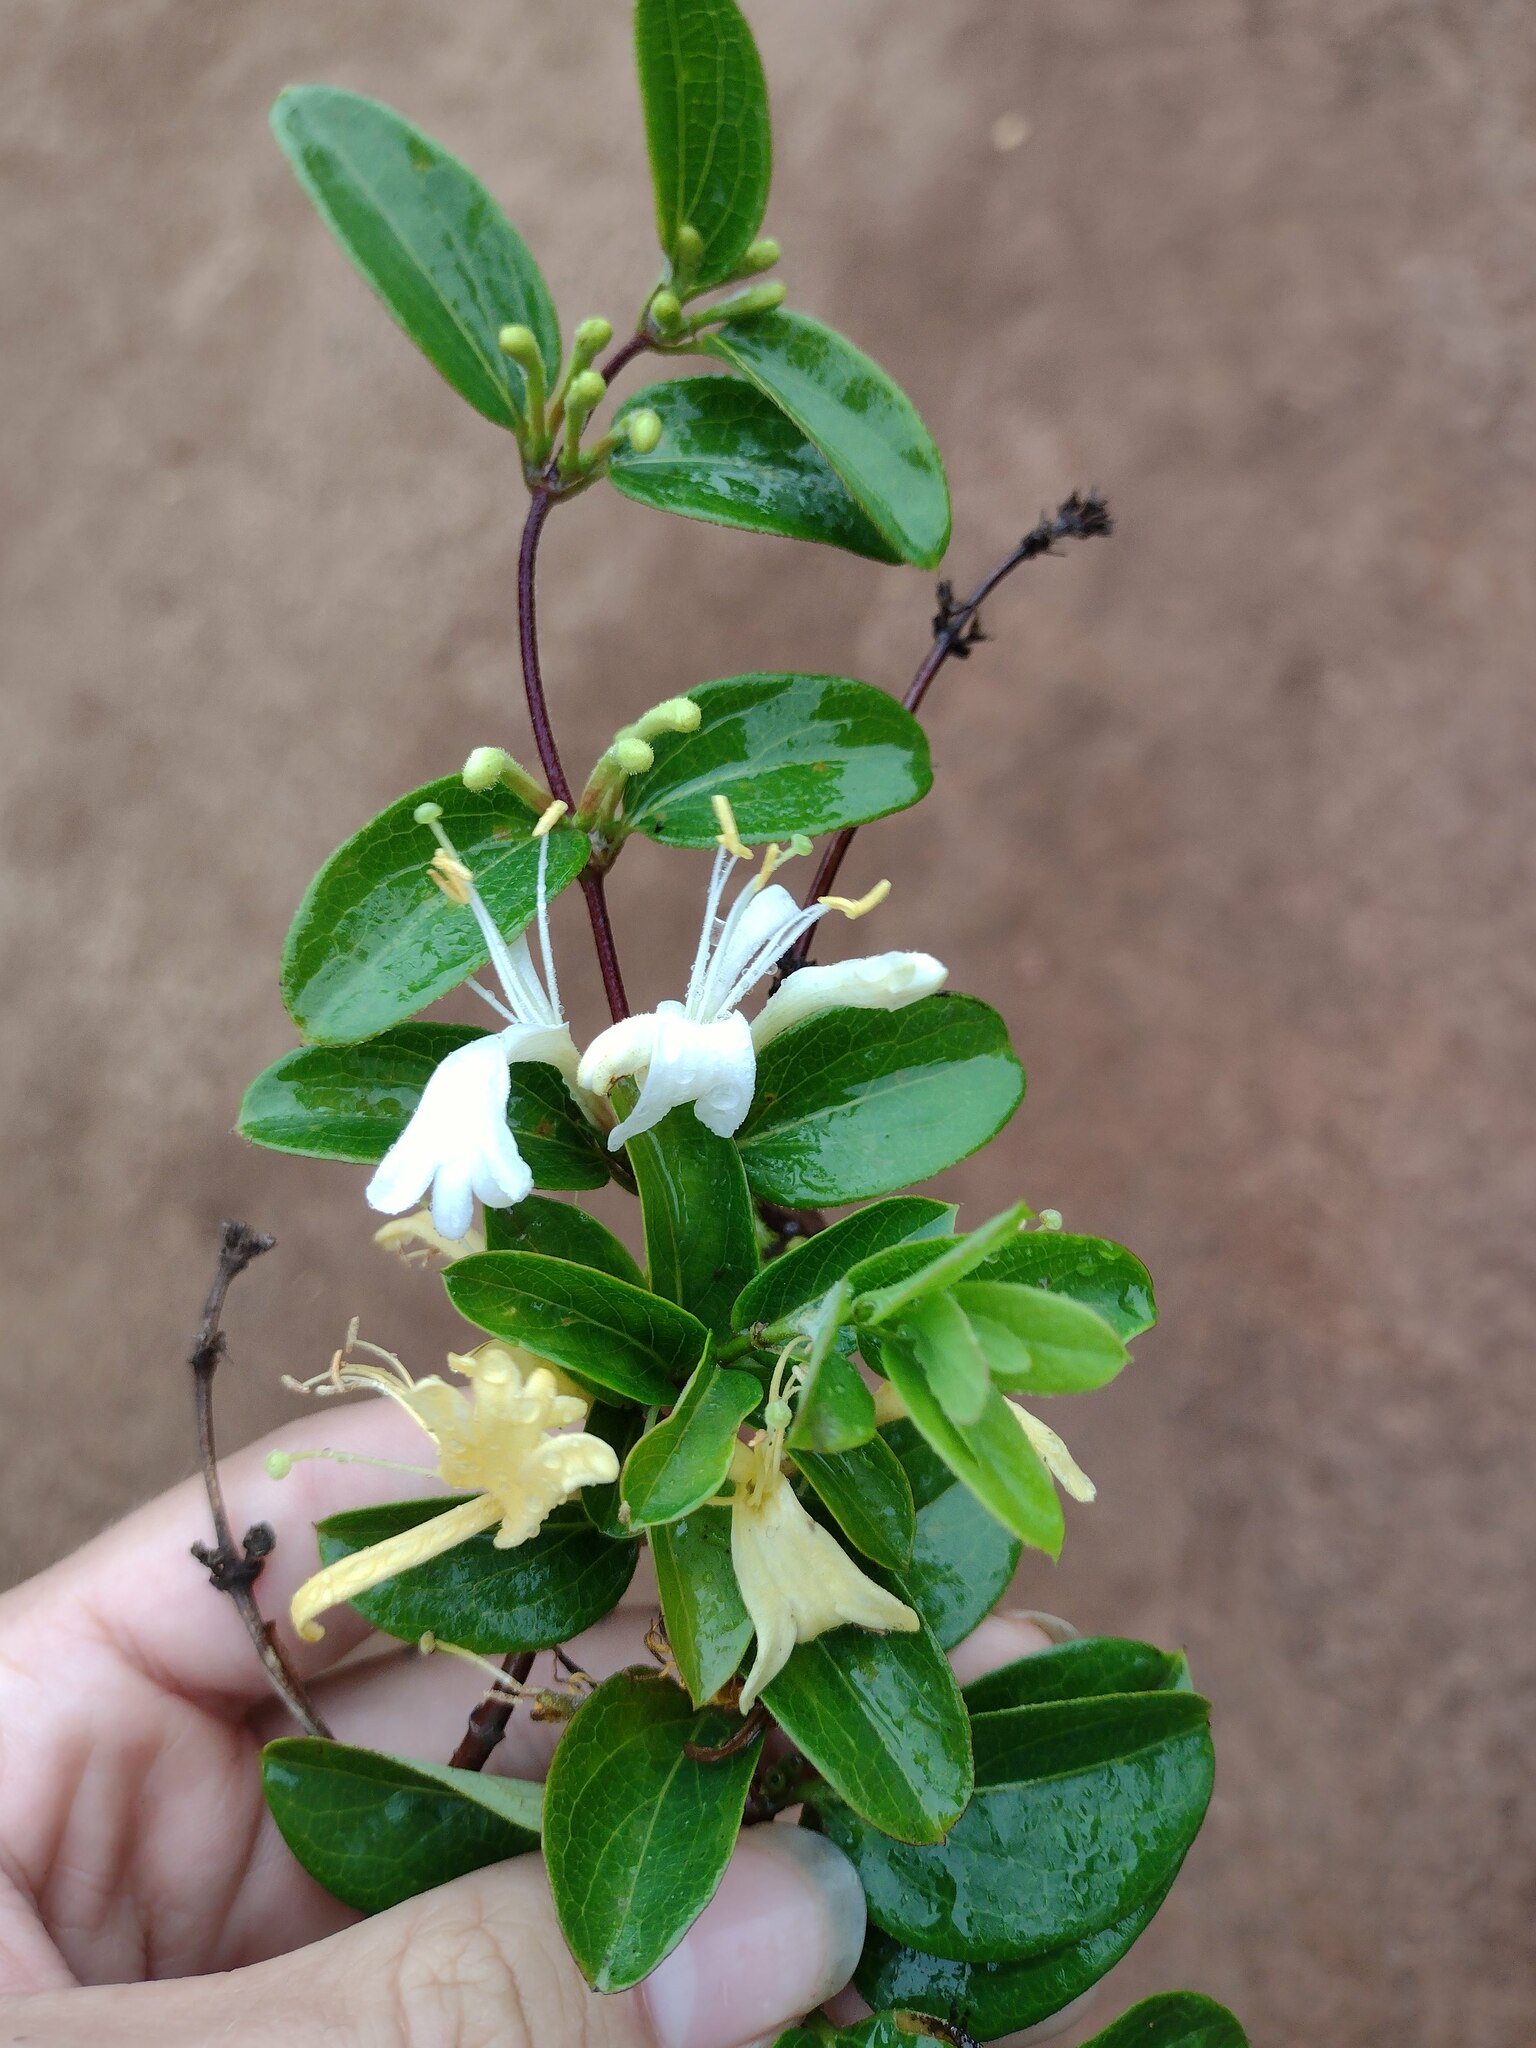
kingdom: Plantae
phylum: Tracheophyta
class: Magnoliopsida
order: Dipsacales
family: Caprifoliaceae
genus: Lonicera
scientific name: Lonicera japonica
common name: Japanese honeysuckle
